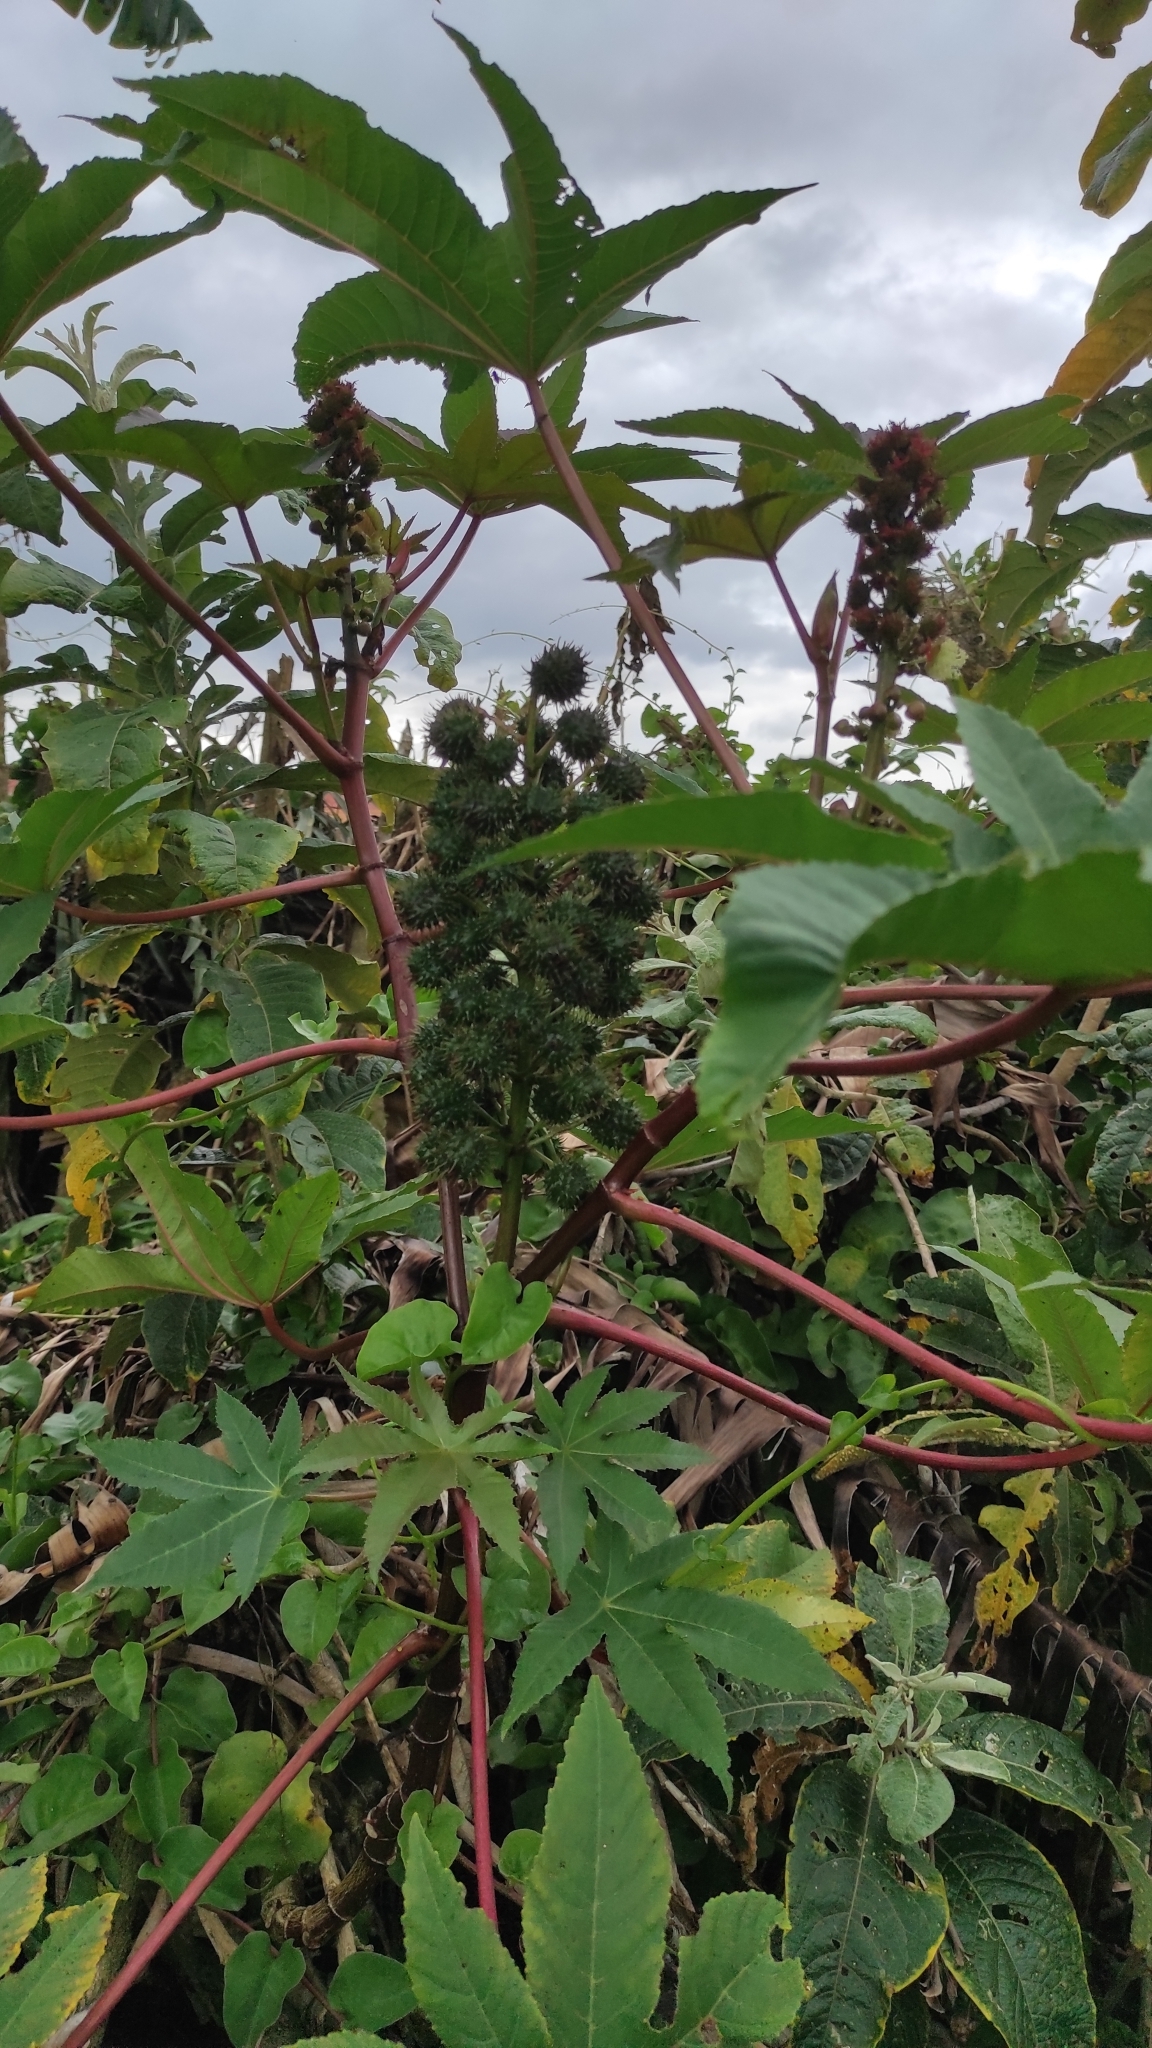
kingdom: Plantae
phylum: Tracheophyta
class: Magnoliopsida
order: Malpighiales
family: Euphorbiaceae
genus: Ricinus
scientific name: Ricinus communis
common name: Castor-oil-plant
